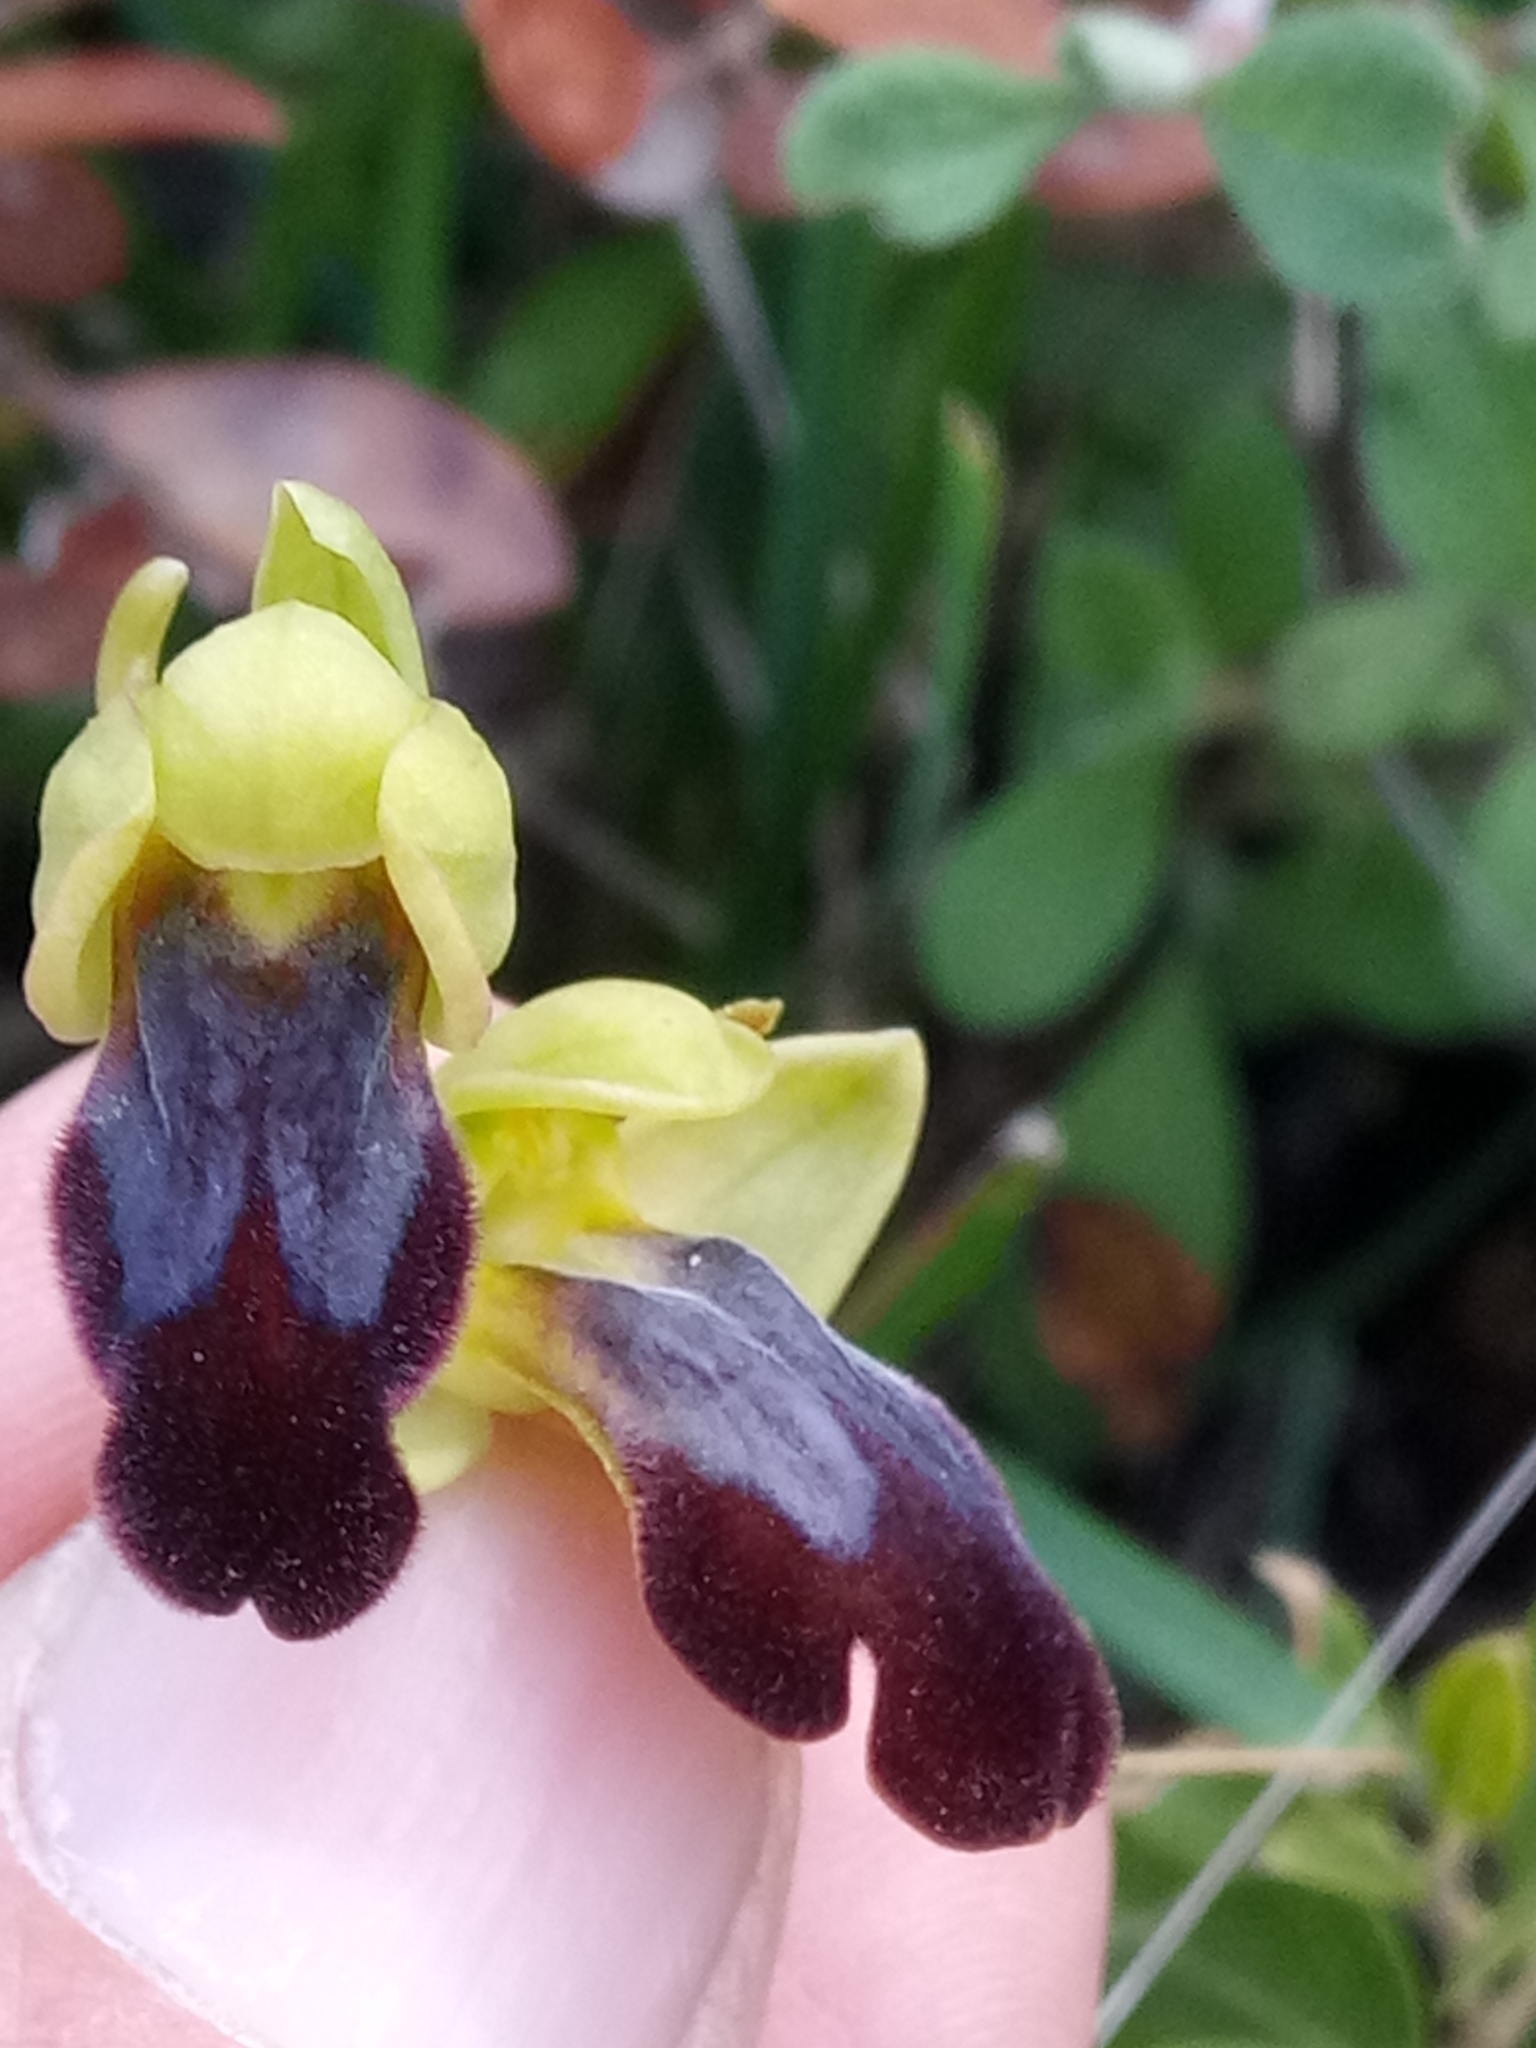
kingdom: Plantae
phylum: Tracheophyta
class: Liliopsida
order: Asparagales
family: Orchidaceae
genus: Ophrys
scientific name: Ophrys fusca
